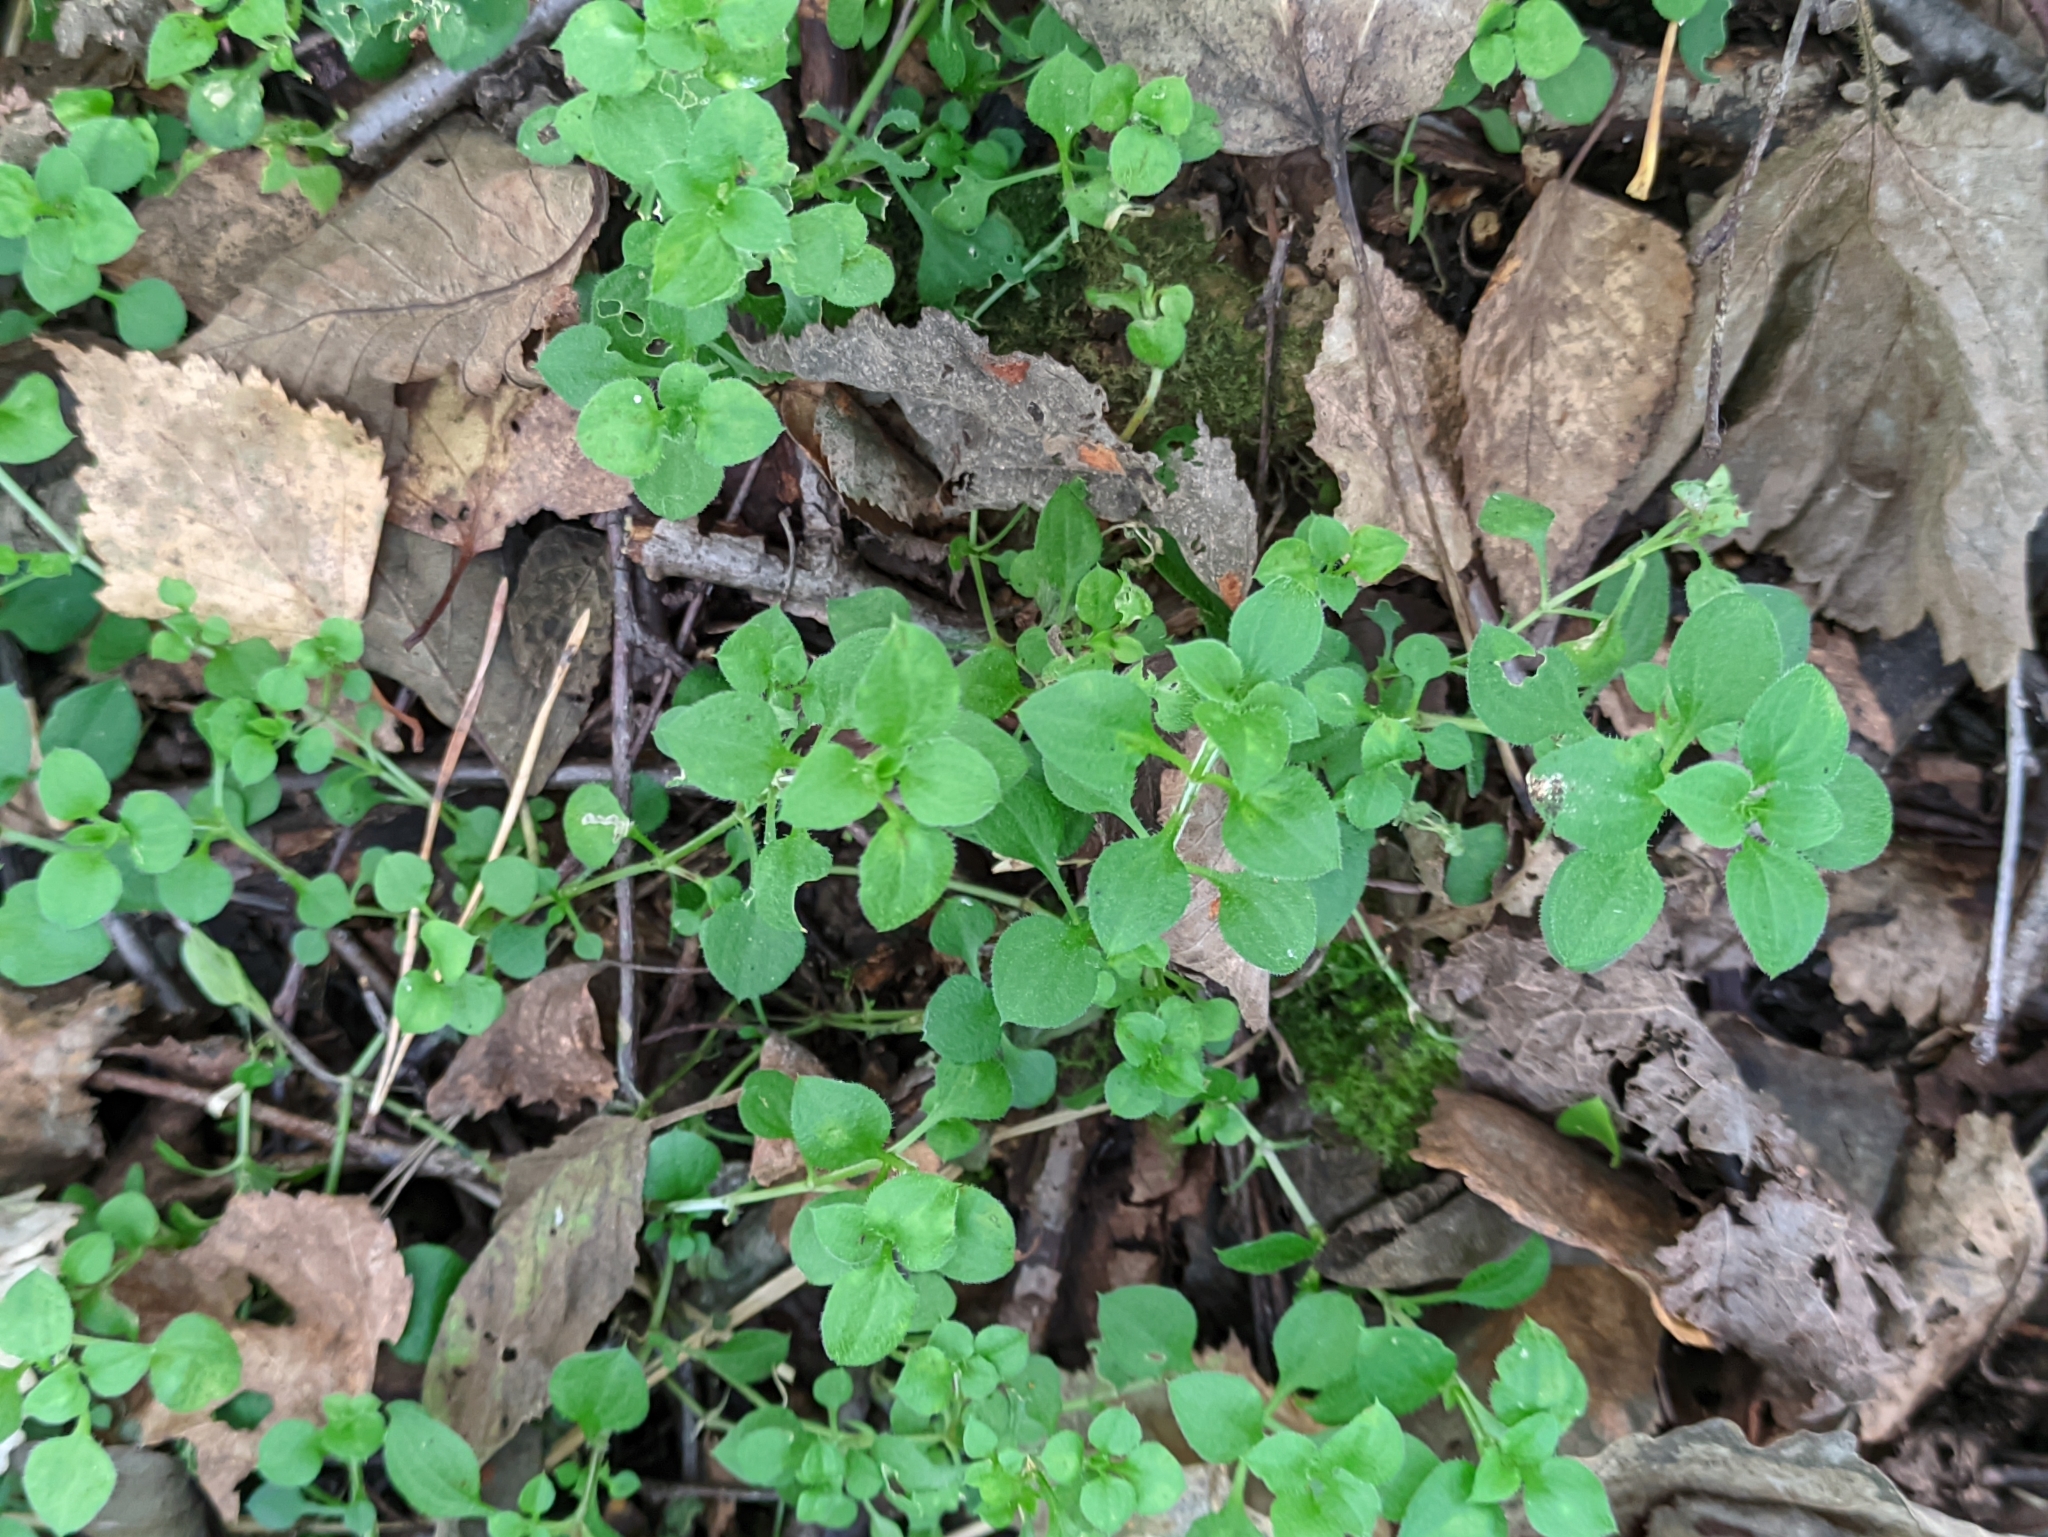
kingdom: Plantae
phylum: Tracheophyta
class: Magnoliopsida
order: Caryophyllales
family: Caryophyllaceae
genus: Moehringia
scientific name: Moehringia trinervia
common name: Three-nerved sandwort
